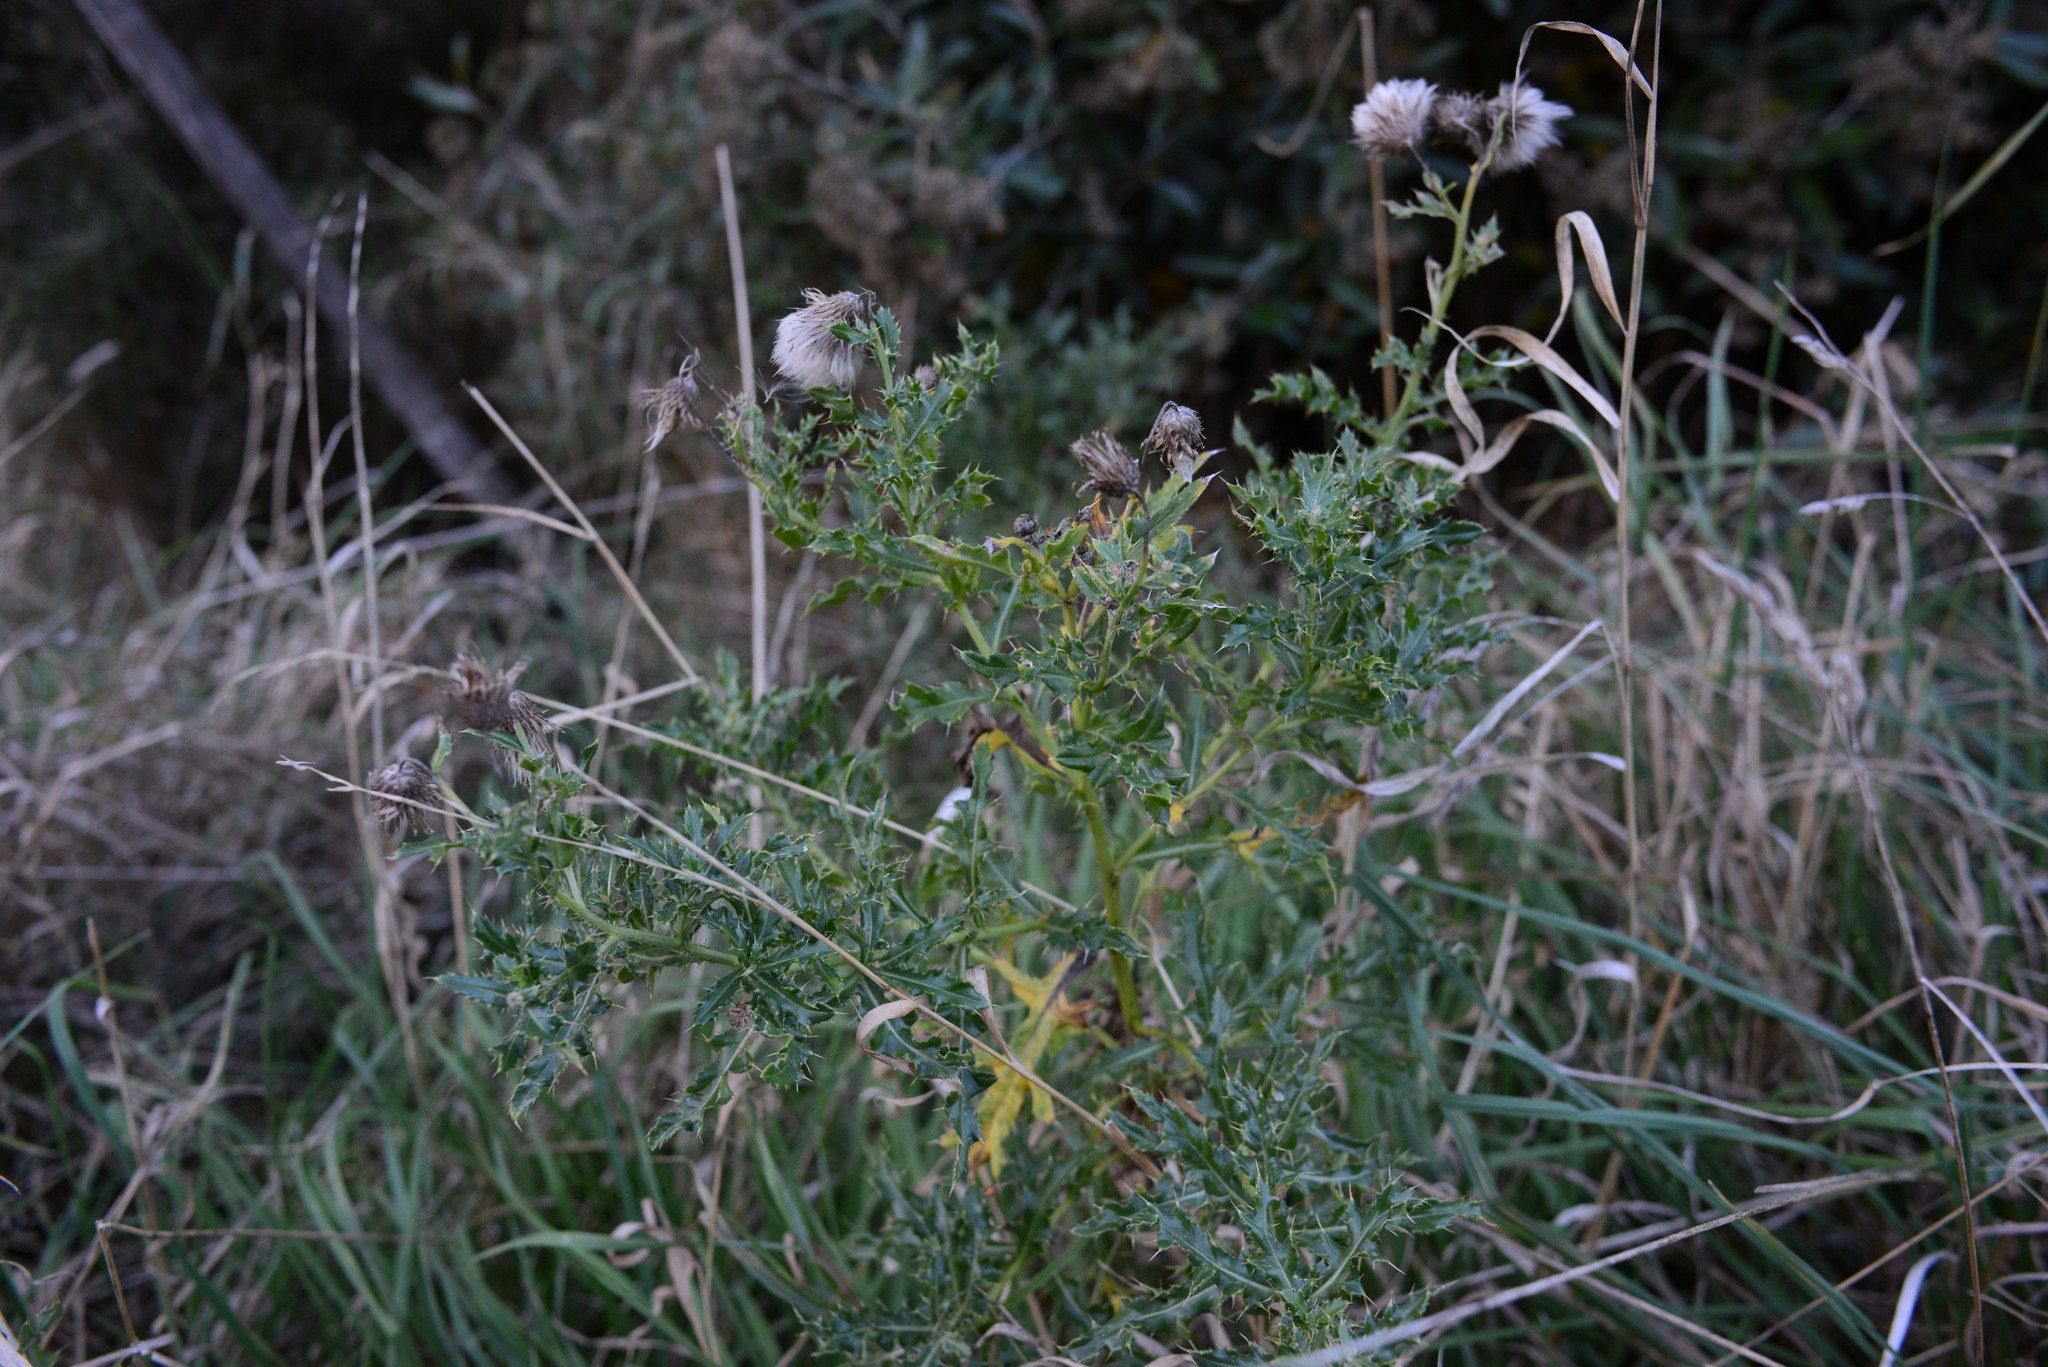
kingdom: Plantae
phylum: Tracheophyta
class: Magnoliopsida
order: Asterales
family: Asteraceae
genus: Cirsium
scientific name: Cirsium arvense
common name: Creeping thistle
